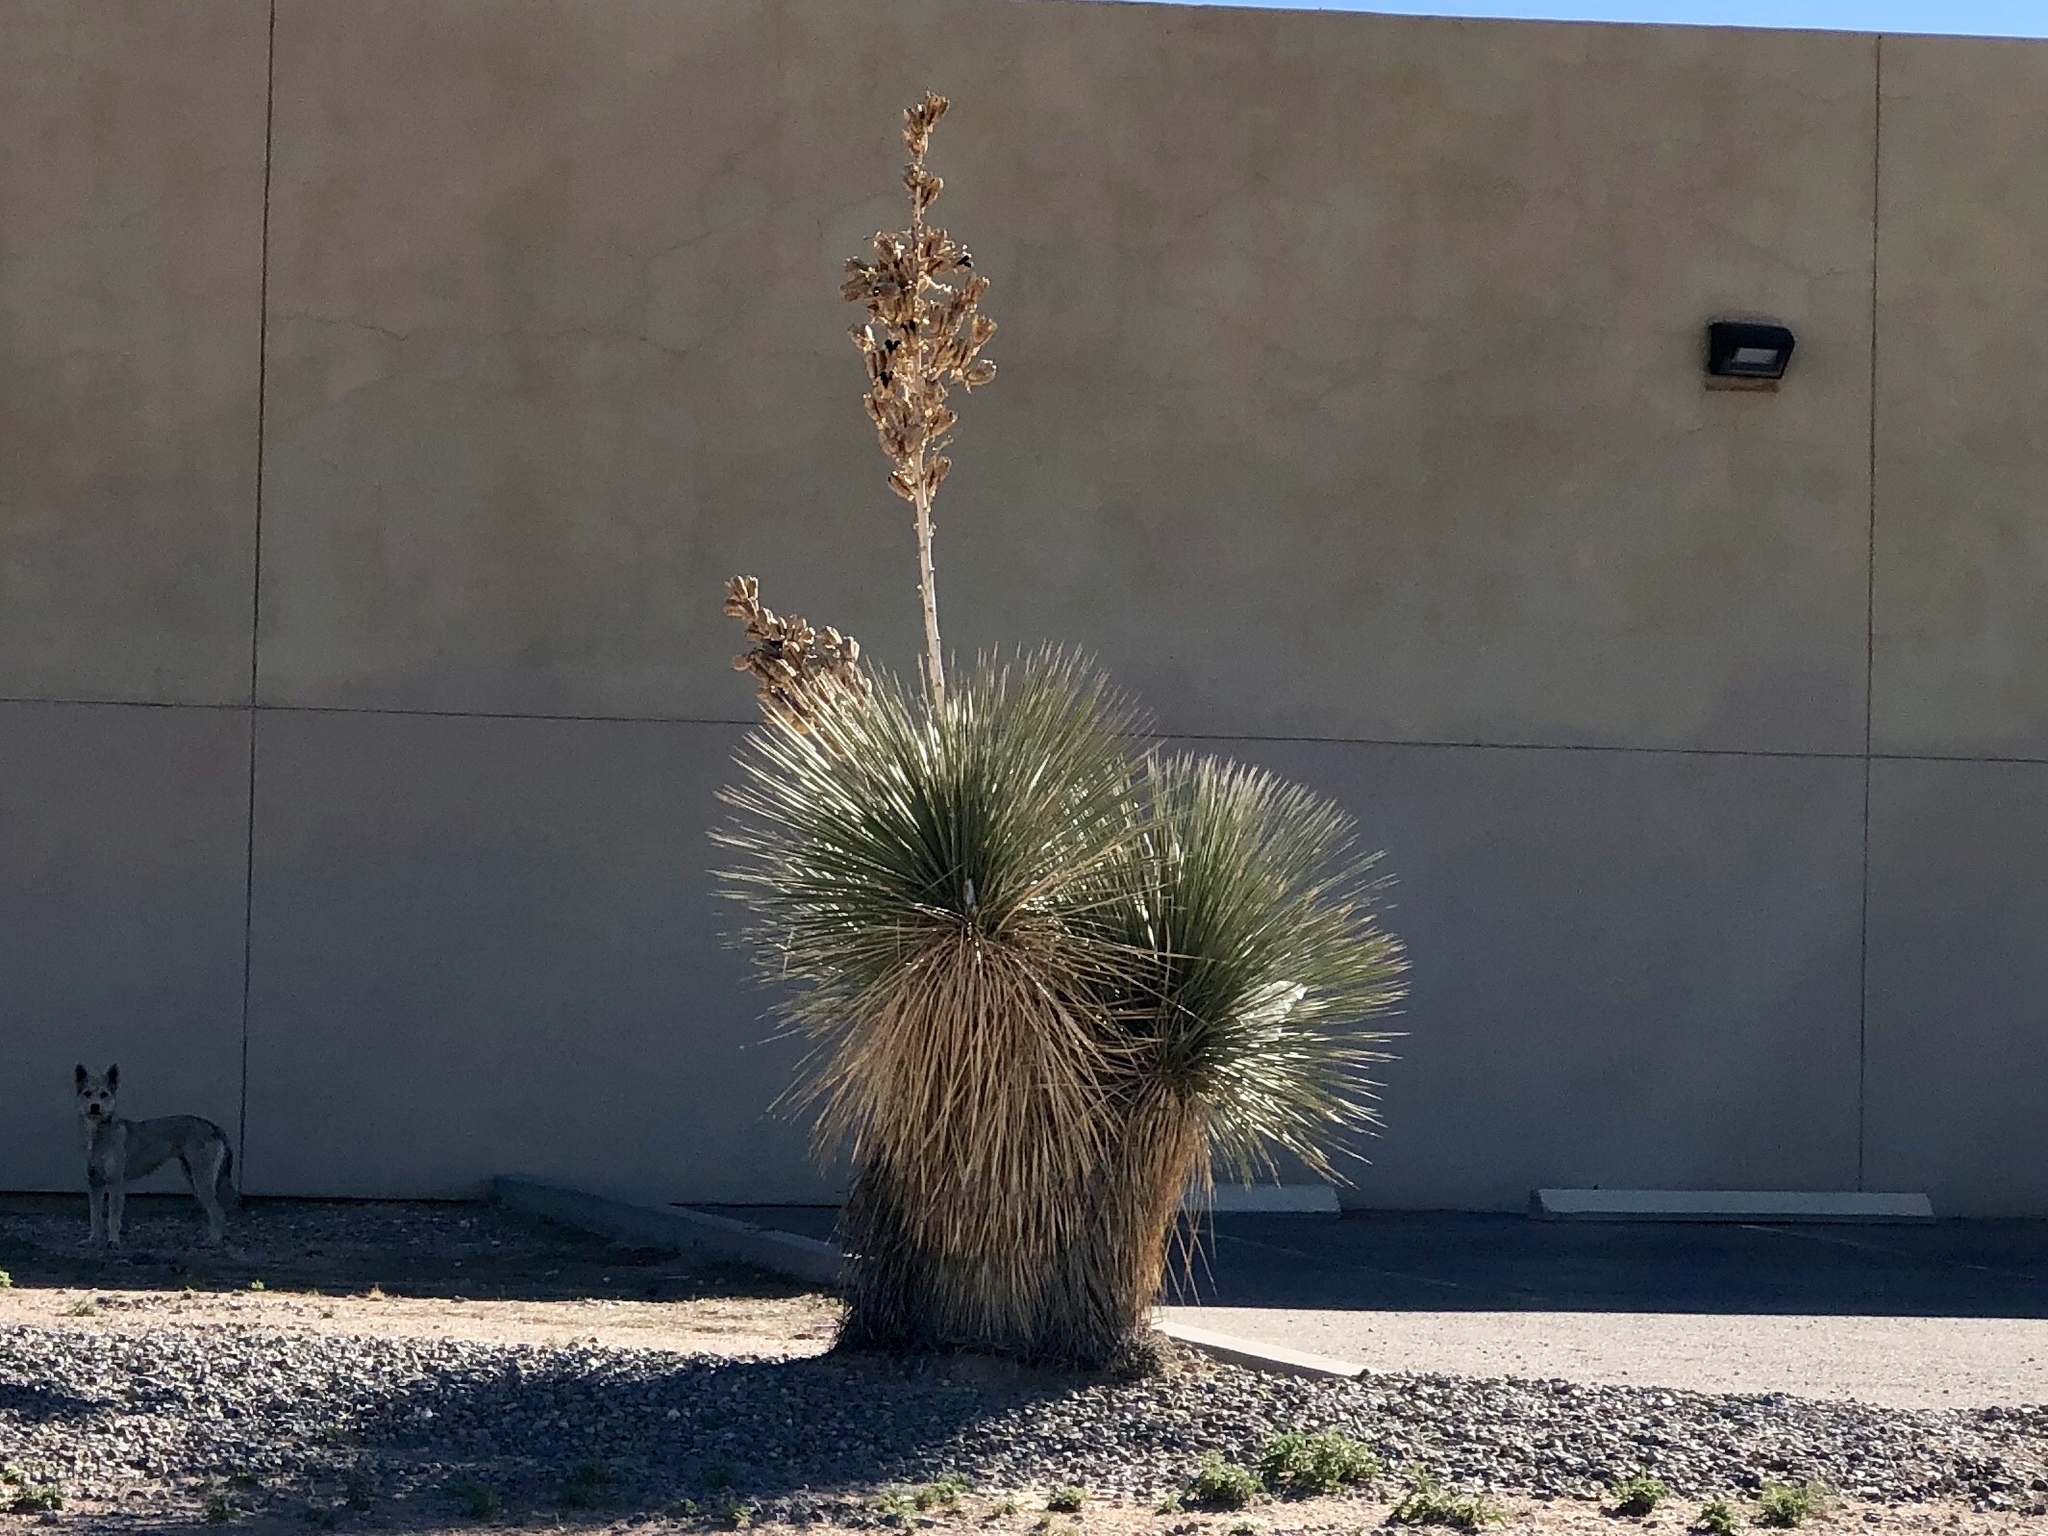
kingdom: Plantae
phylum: Tracheophyta
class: Liliopsida
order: Asparagales
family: Asparagaceae
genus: Yucca
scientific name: Yucca elata
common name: Palmella
